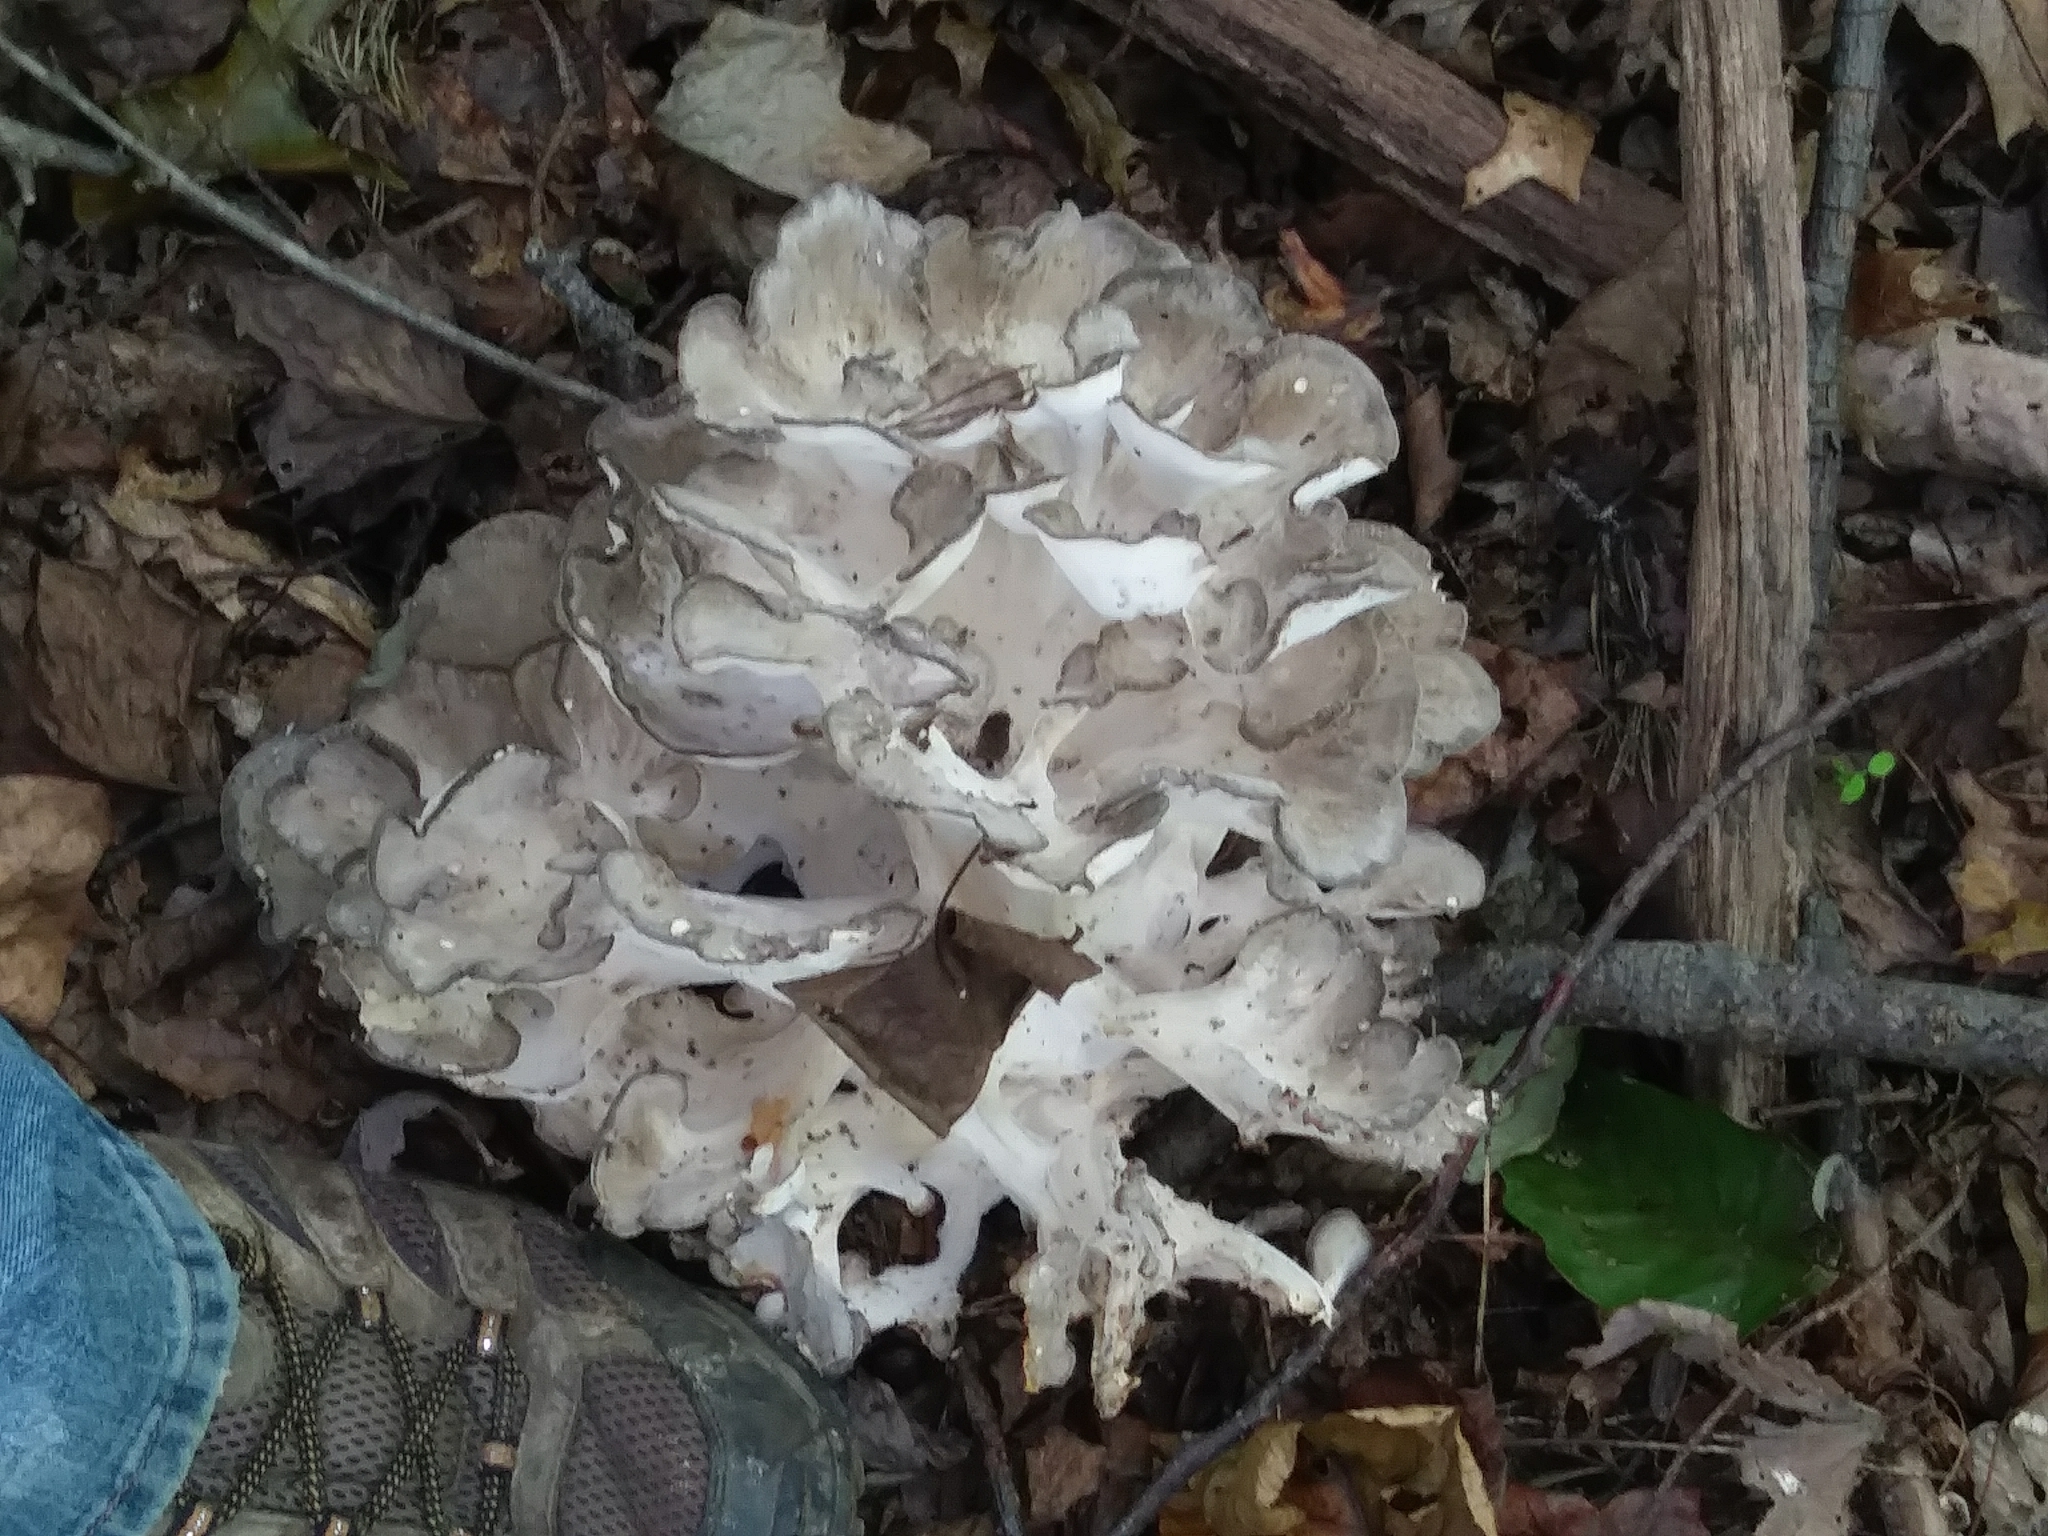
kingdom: Fungi
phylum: Basidiomycota
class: Agaricomycetes
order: Polyporales
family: Grifolaceae
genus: Grifola
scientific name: Grifola frondosa
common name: Hen of the woods
